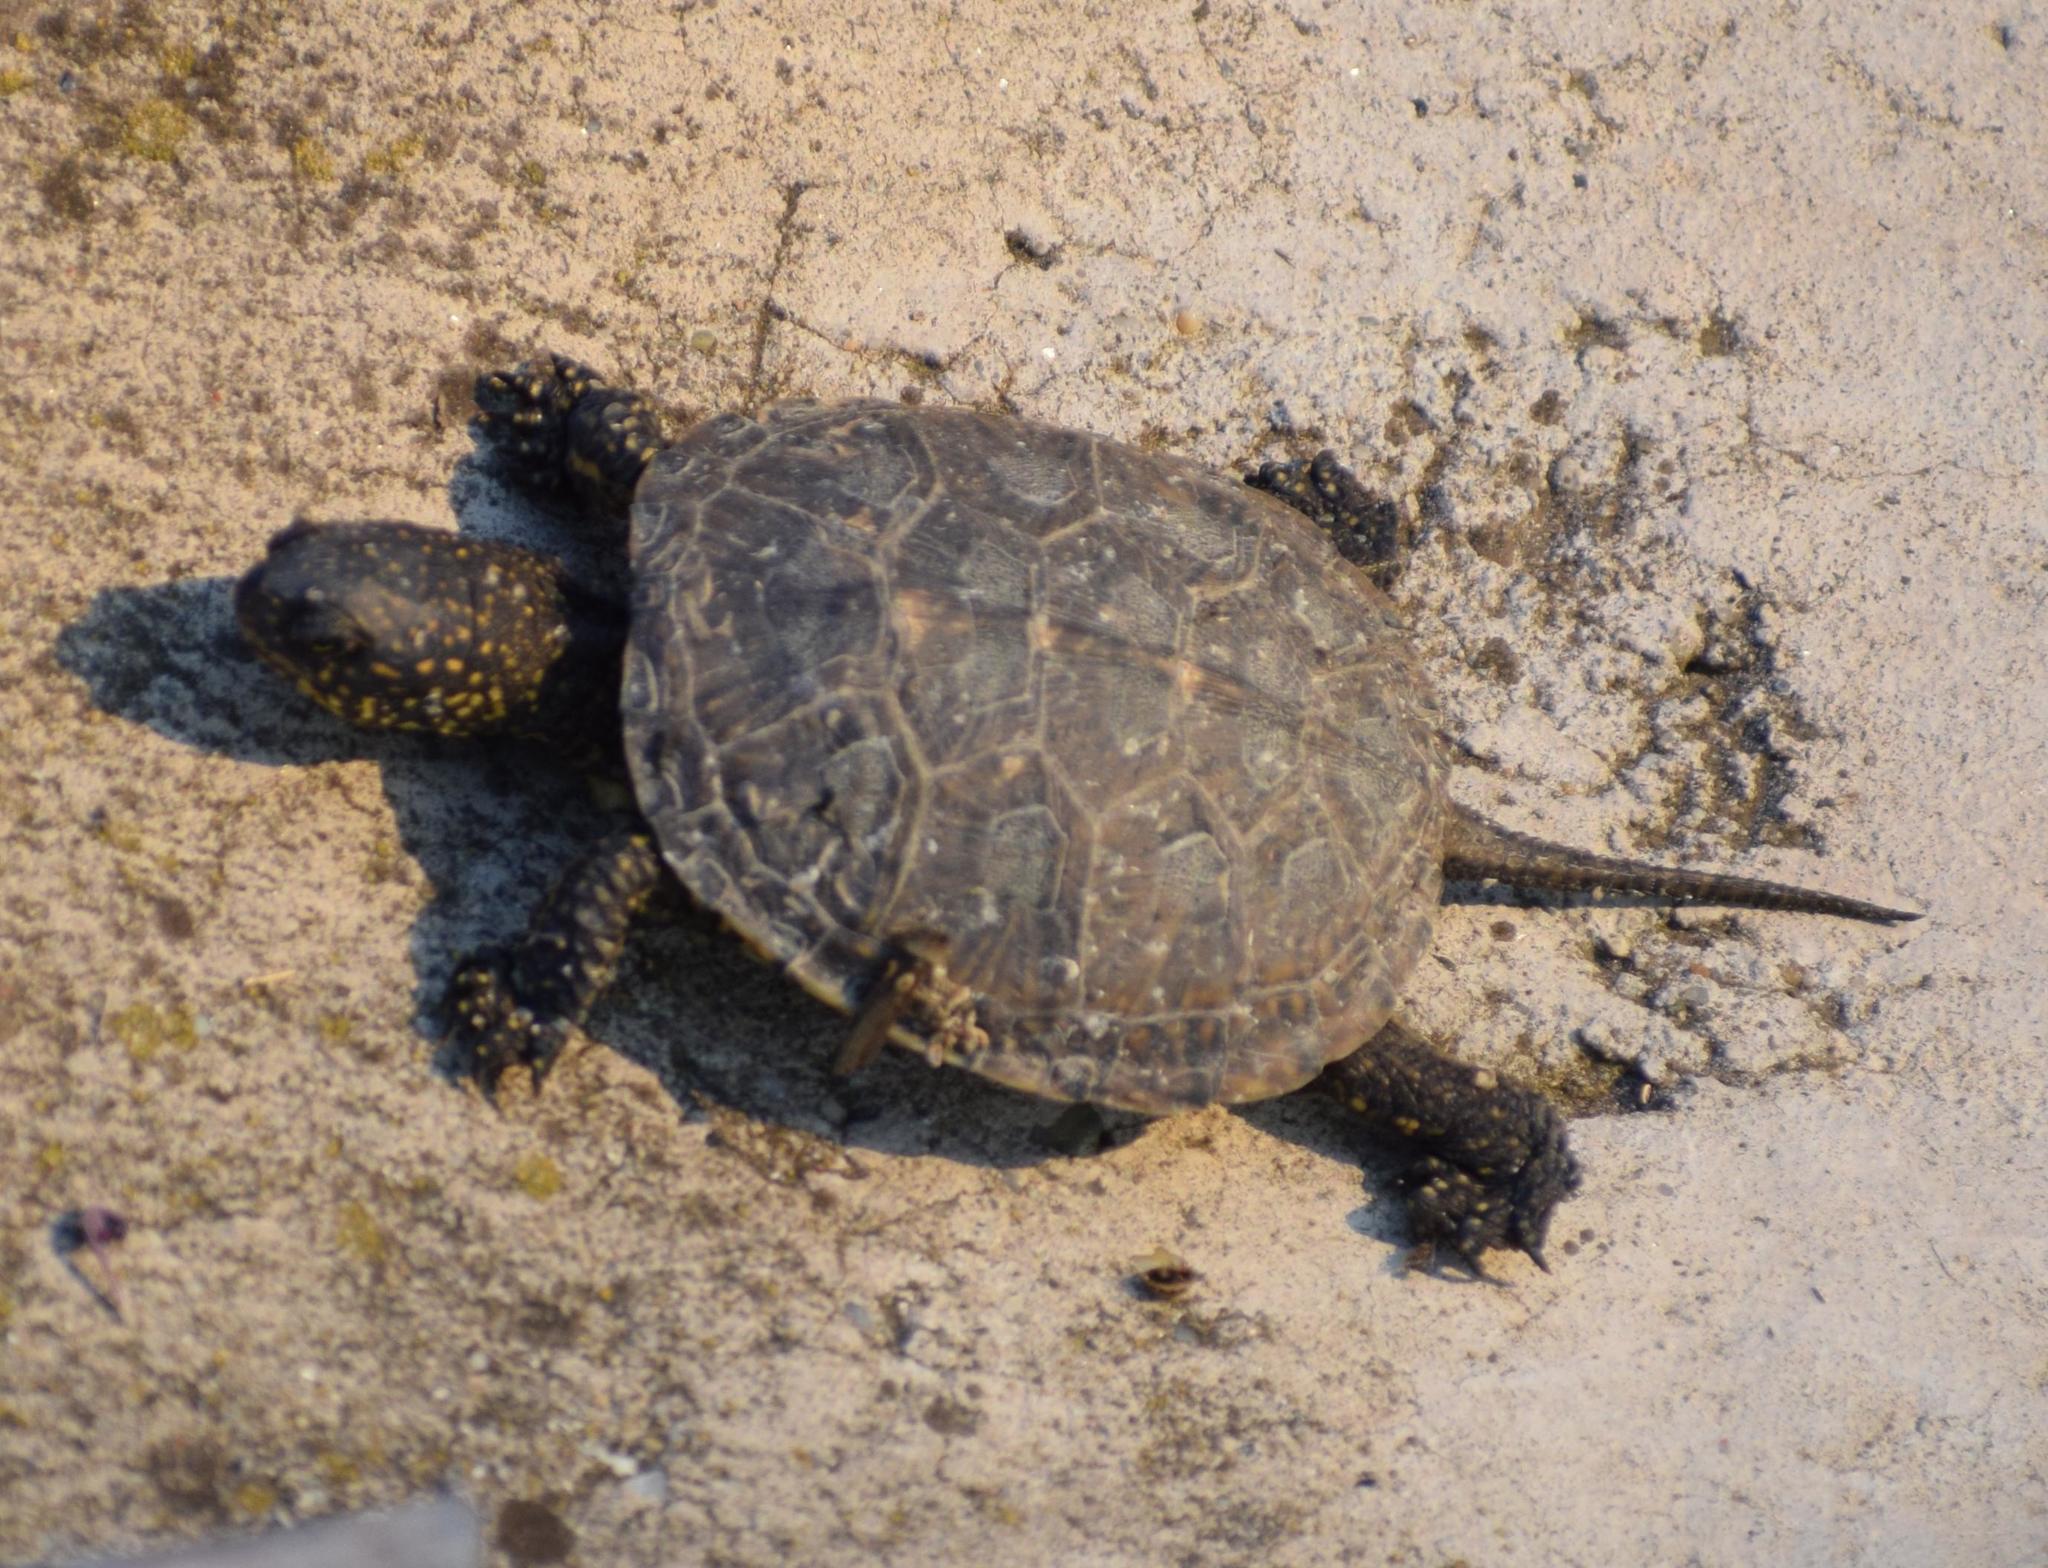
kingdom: Animalia
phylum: Chordata
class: Testudines
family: Emydidae
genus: Emys
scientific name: Emys orbicularis
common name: European pond turtle
